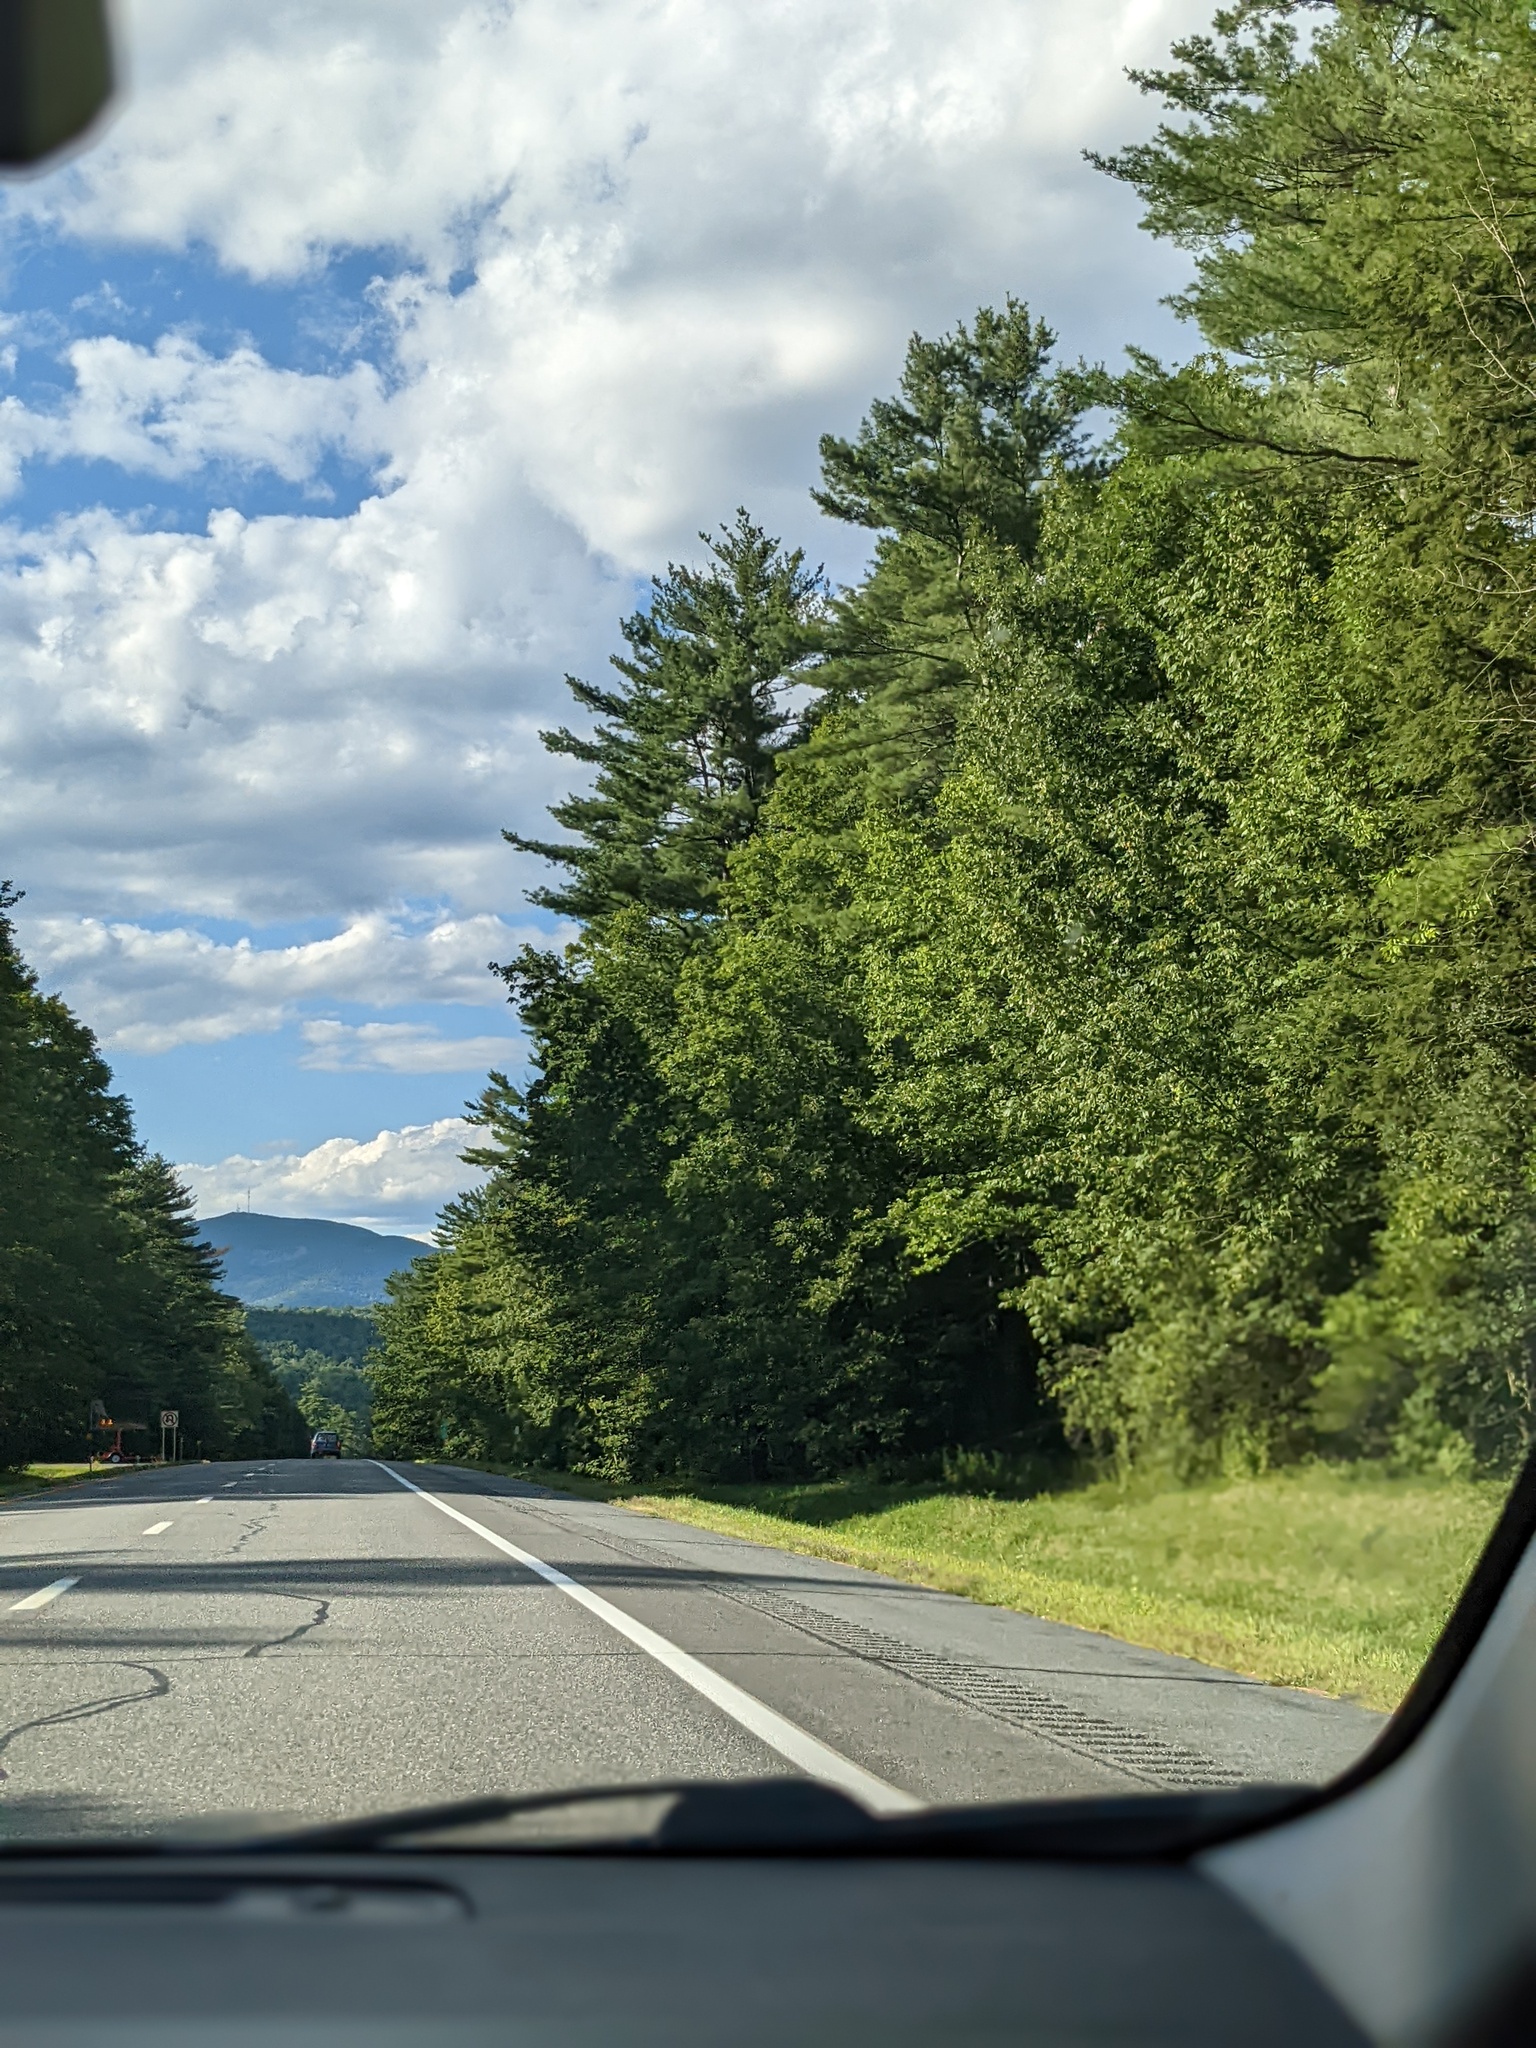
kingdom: Plantae
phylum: Tracheophyta
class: Pinopsida
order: Pinales
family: Pinaceae
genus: Pinus
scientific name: Pinus strobus
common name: Weymouth pine
